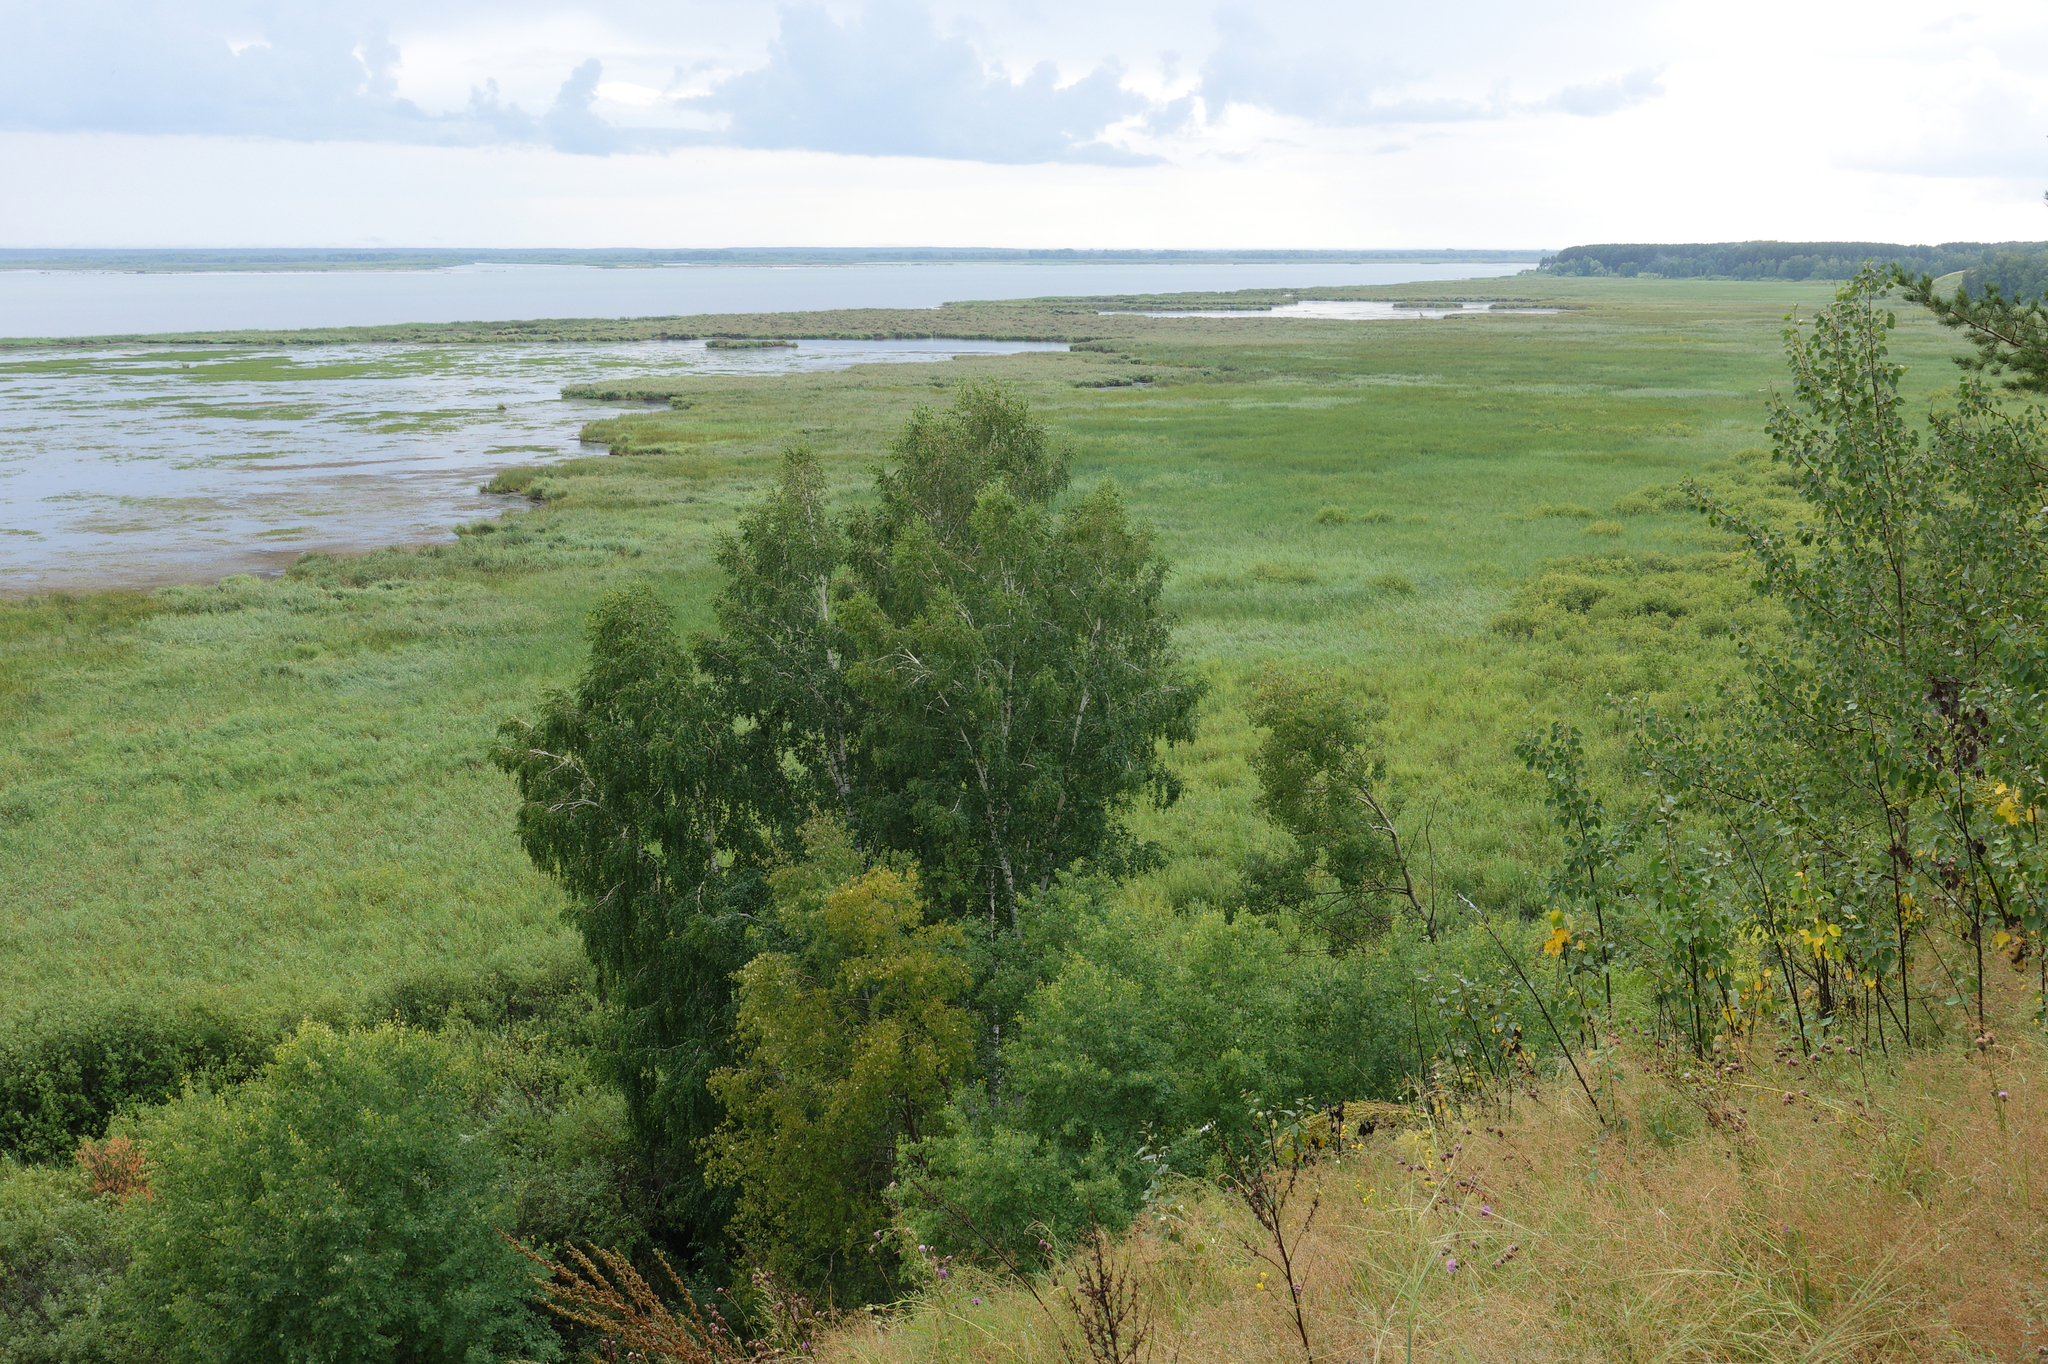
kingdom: Plantae
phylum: Tracheophyta
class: Magnoliopsida
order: Fagales
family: Betulaceae
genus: Betula
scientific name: Betula pendula
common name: Silver birch
